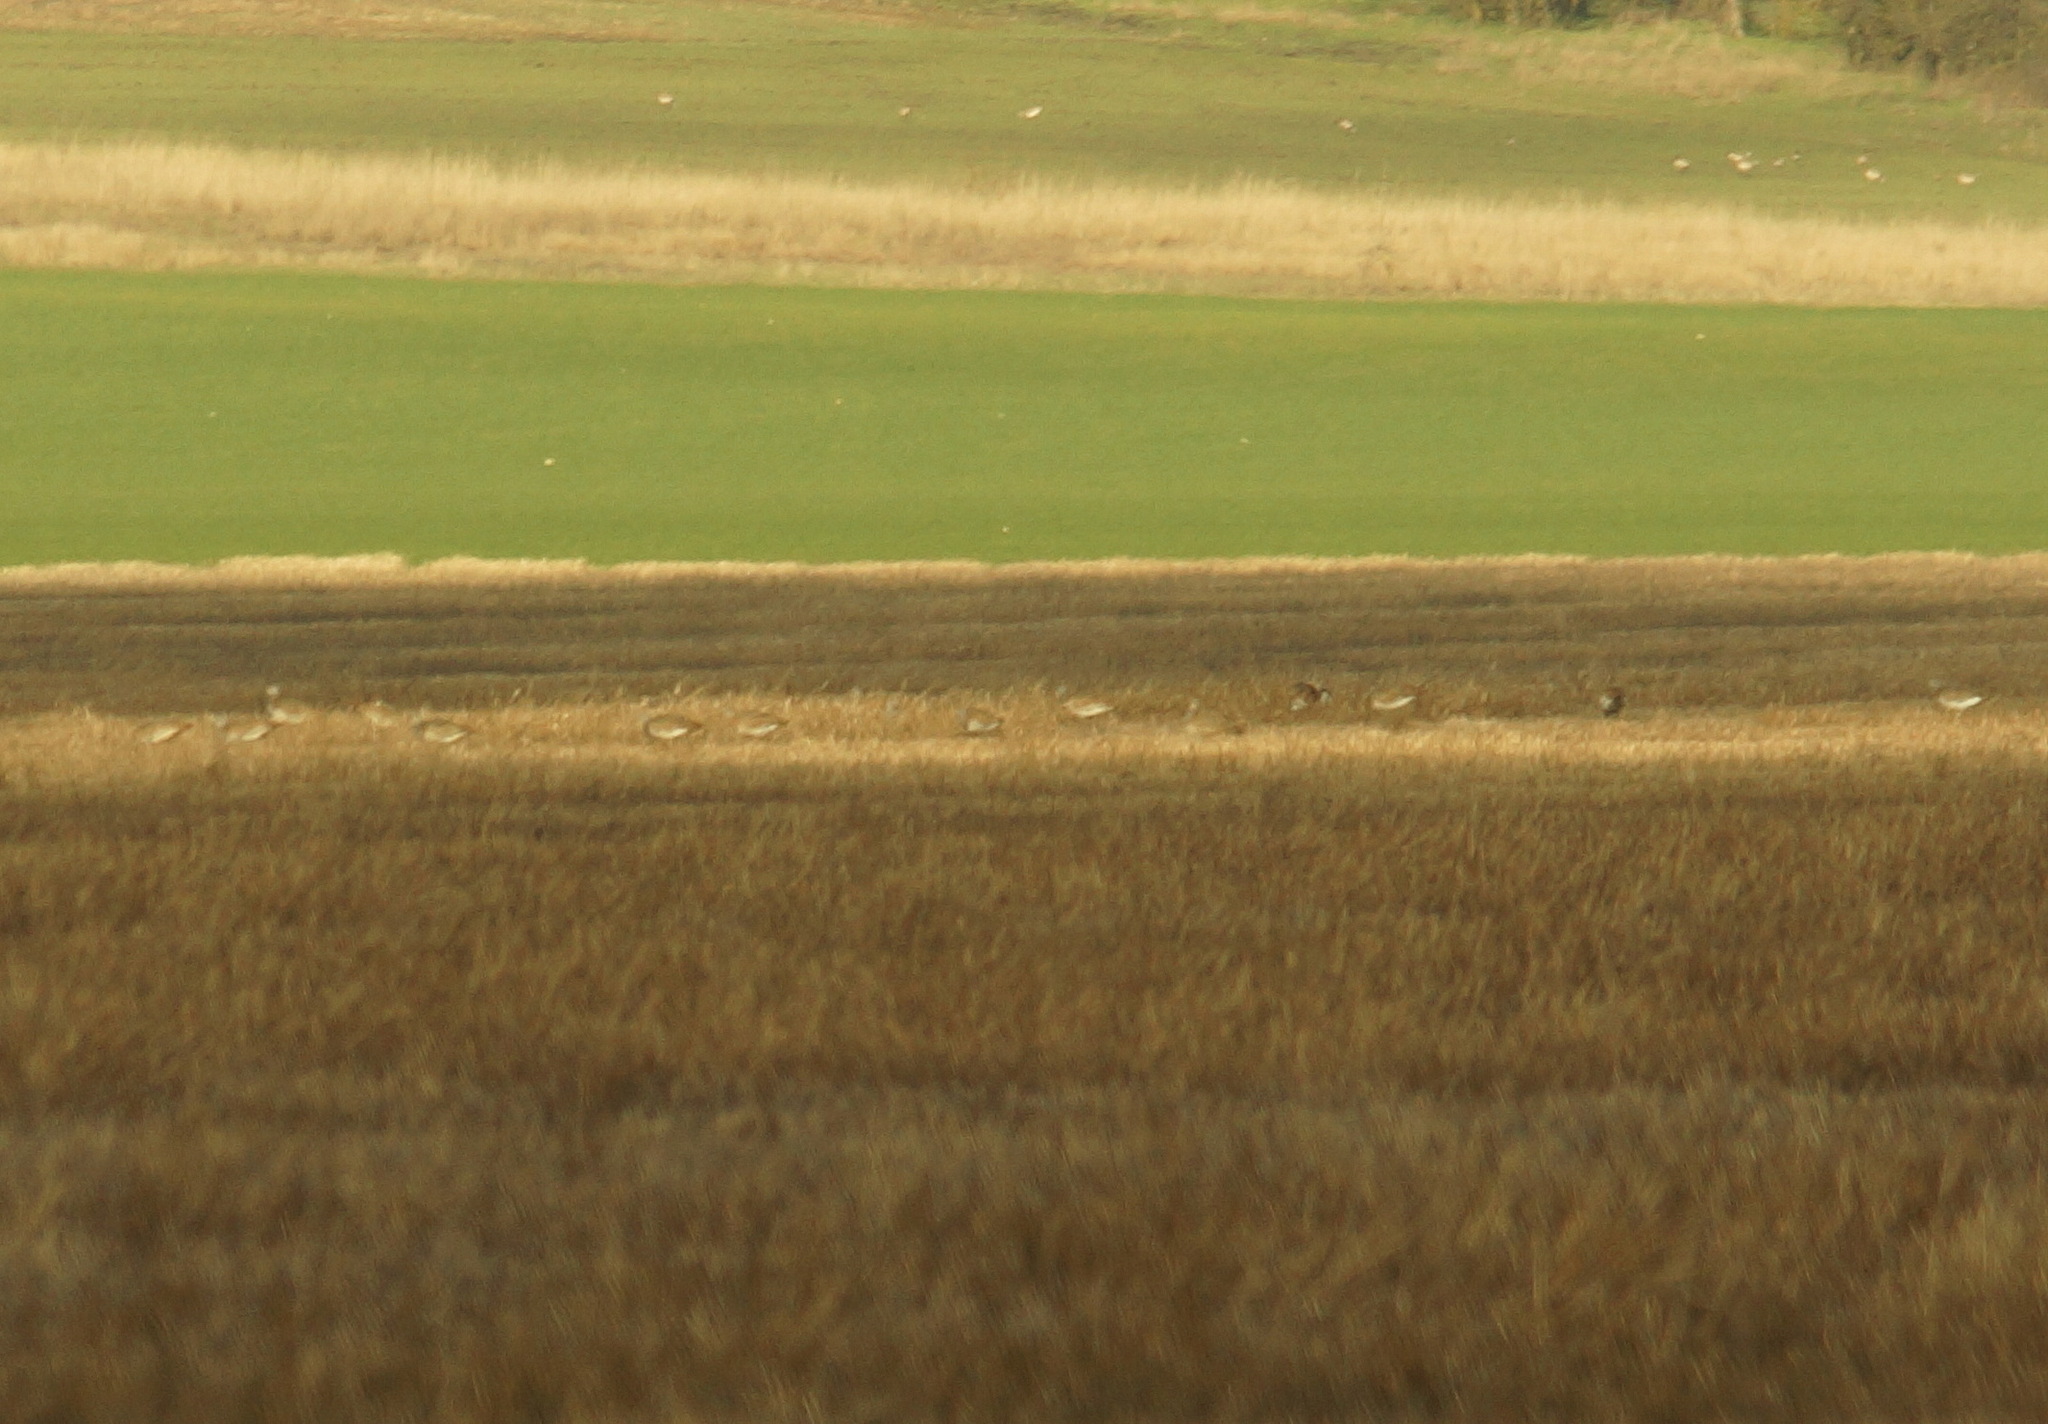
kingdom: Animalia
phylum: Chordata
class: Aves
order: Otidiformes
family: Otididae
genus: Otis
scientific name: Otis tarda
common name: Great bustard
